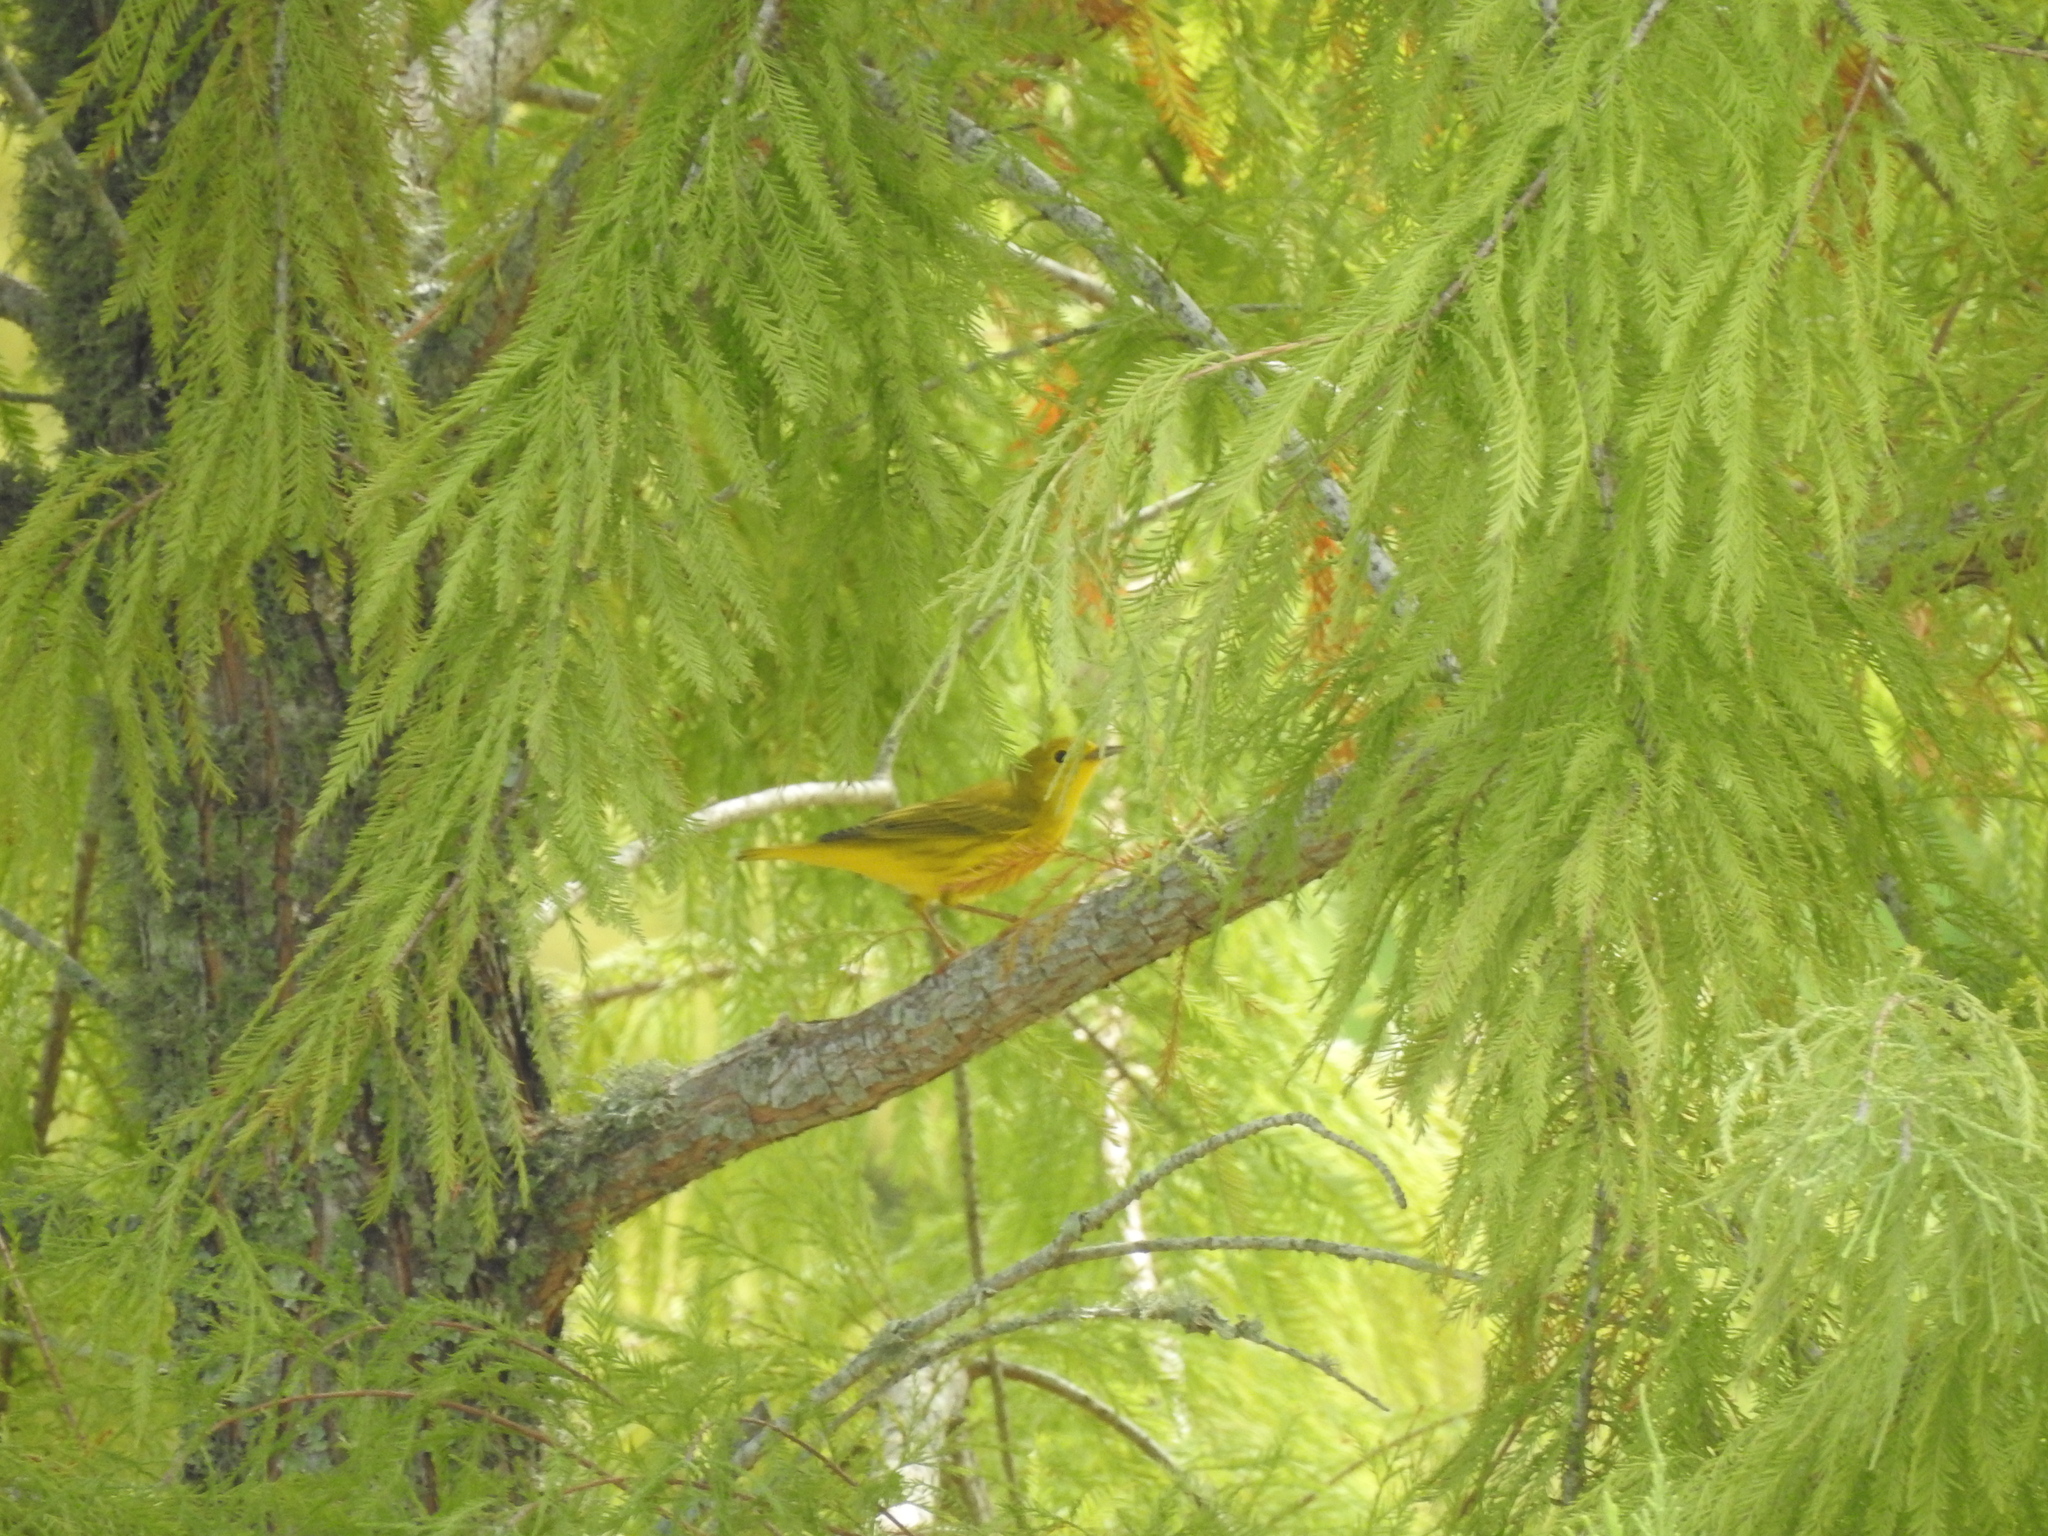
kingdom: Animalia
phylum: Chordata
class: Aves
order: Passeriformes
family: Parulidae
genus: Setophaga
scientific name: Setophaga petechia
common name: Yellow warbler
